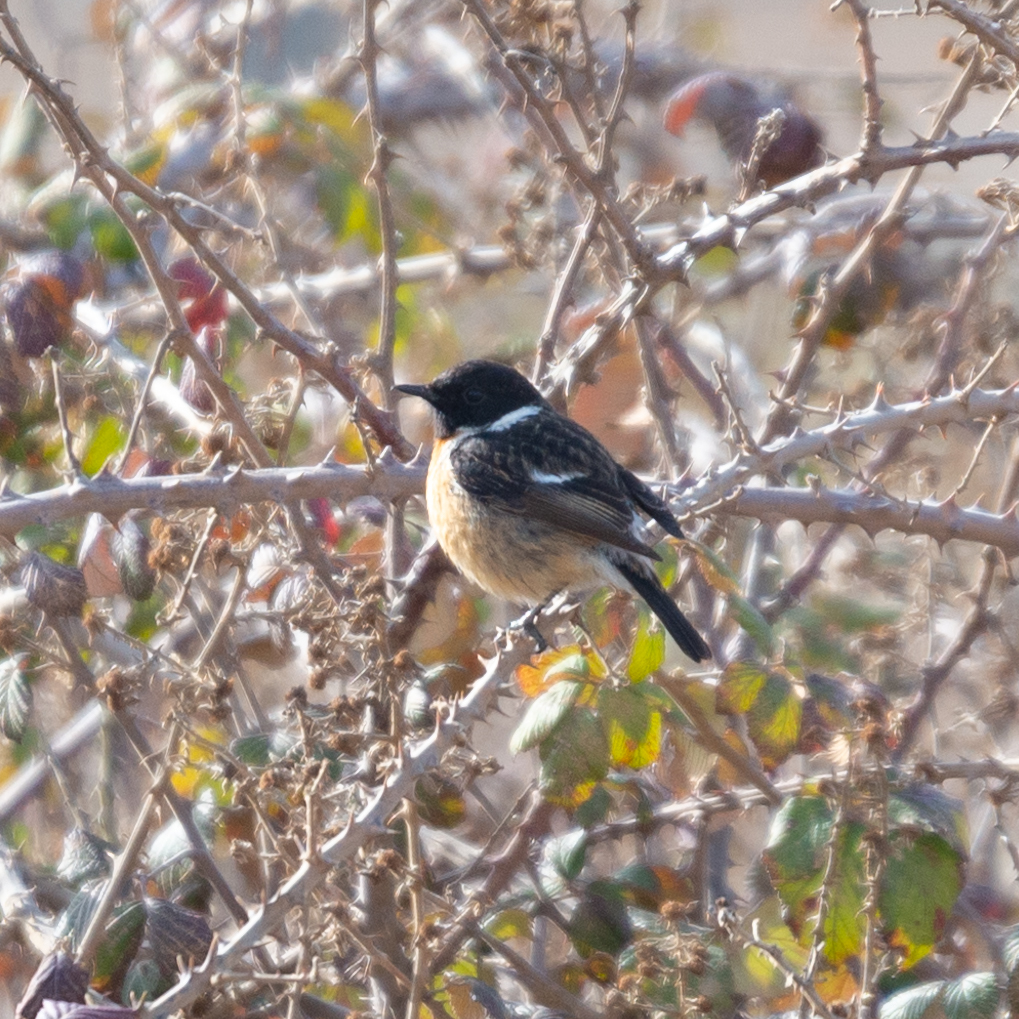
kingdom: Animalia
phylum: Chordata
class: Aves
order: Passeriformes
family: Muscicapidae
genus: Saxicola
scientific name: Saxicola rubicola
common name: European stonechat
